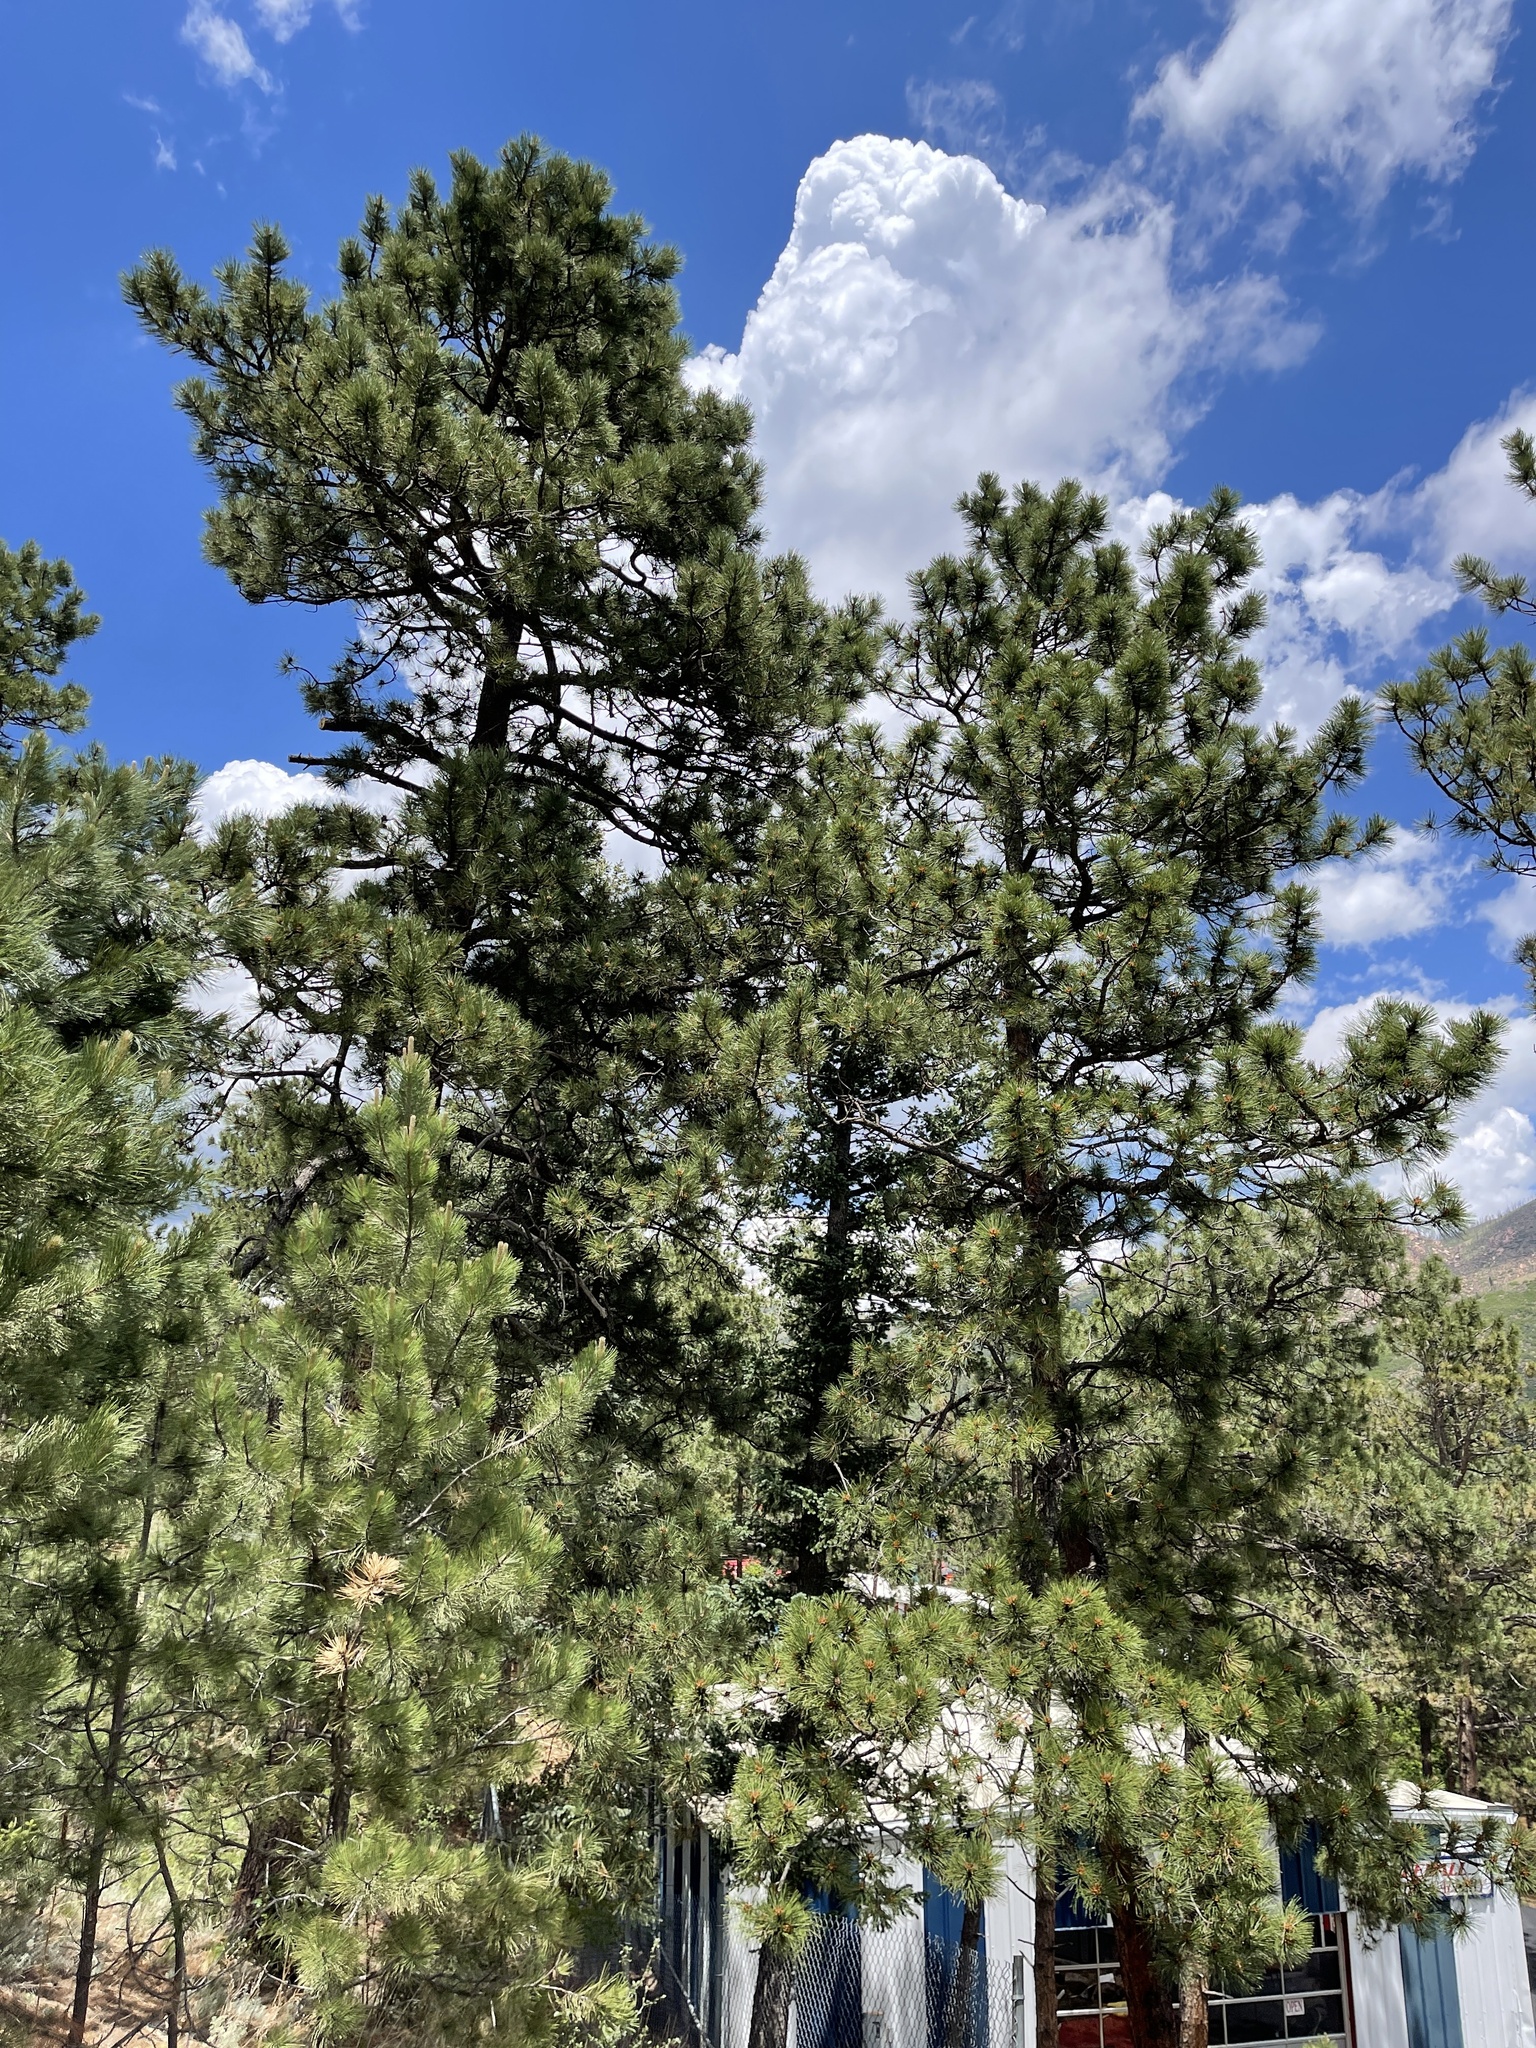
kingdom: Plantae
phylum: Tracheophyta
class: Pinopsida
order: Pinales
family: Pinaceae
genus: Pinus
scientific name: Pinus ponderosa
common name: Western yellow-pine
